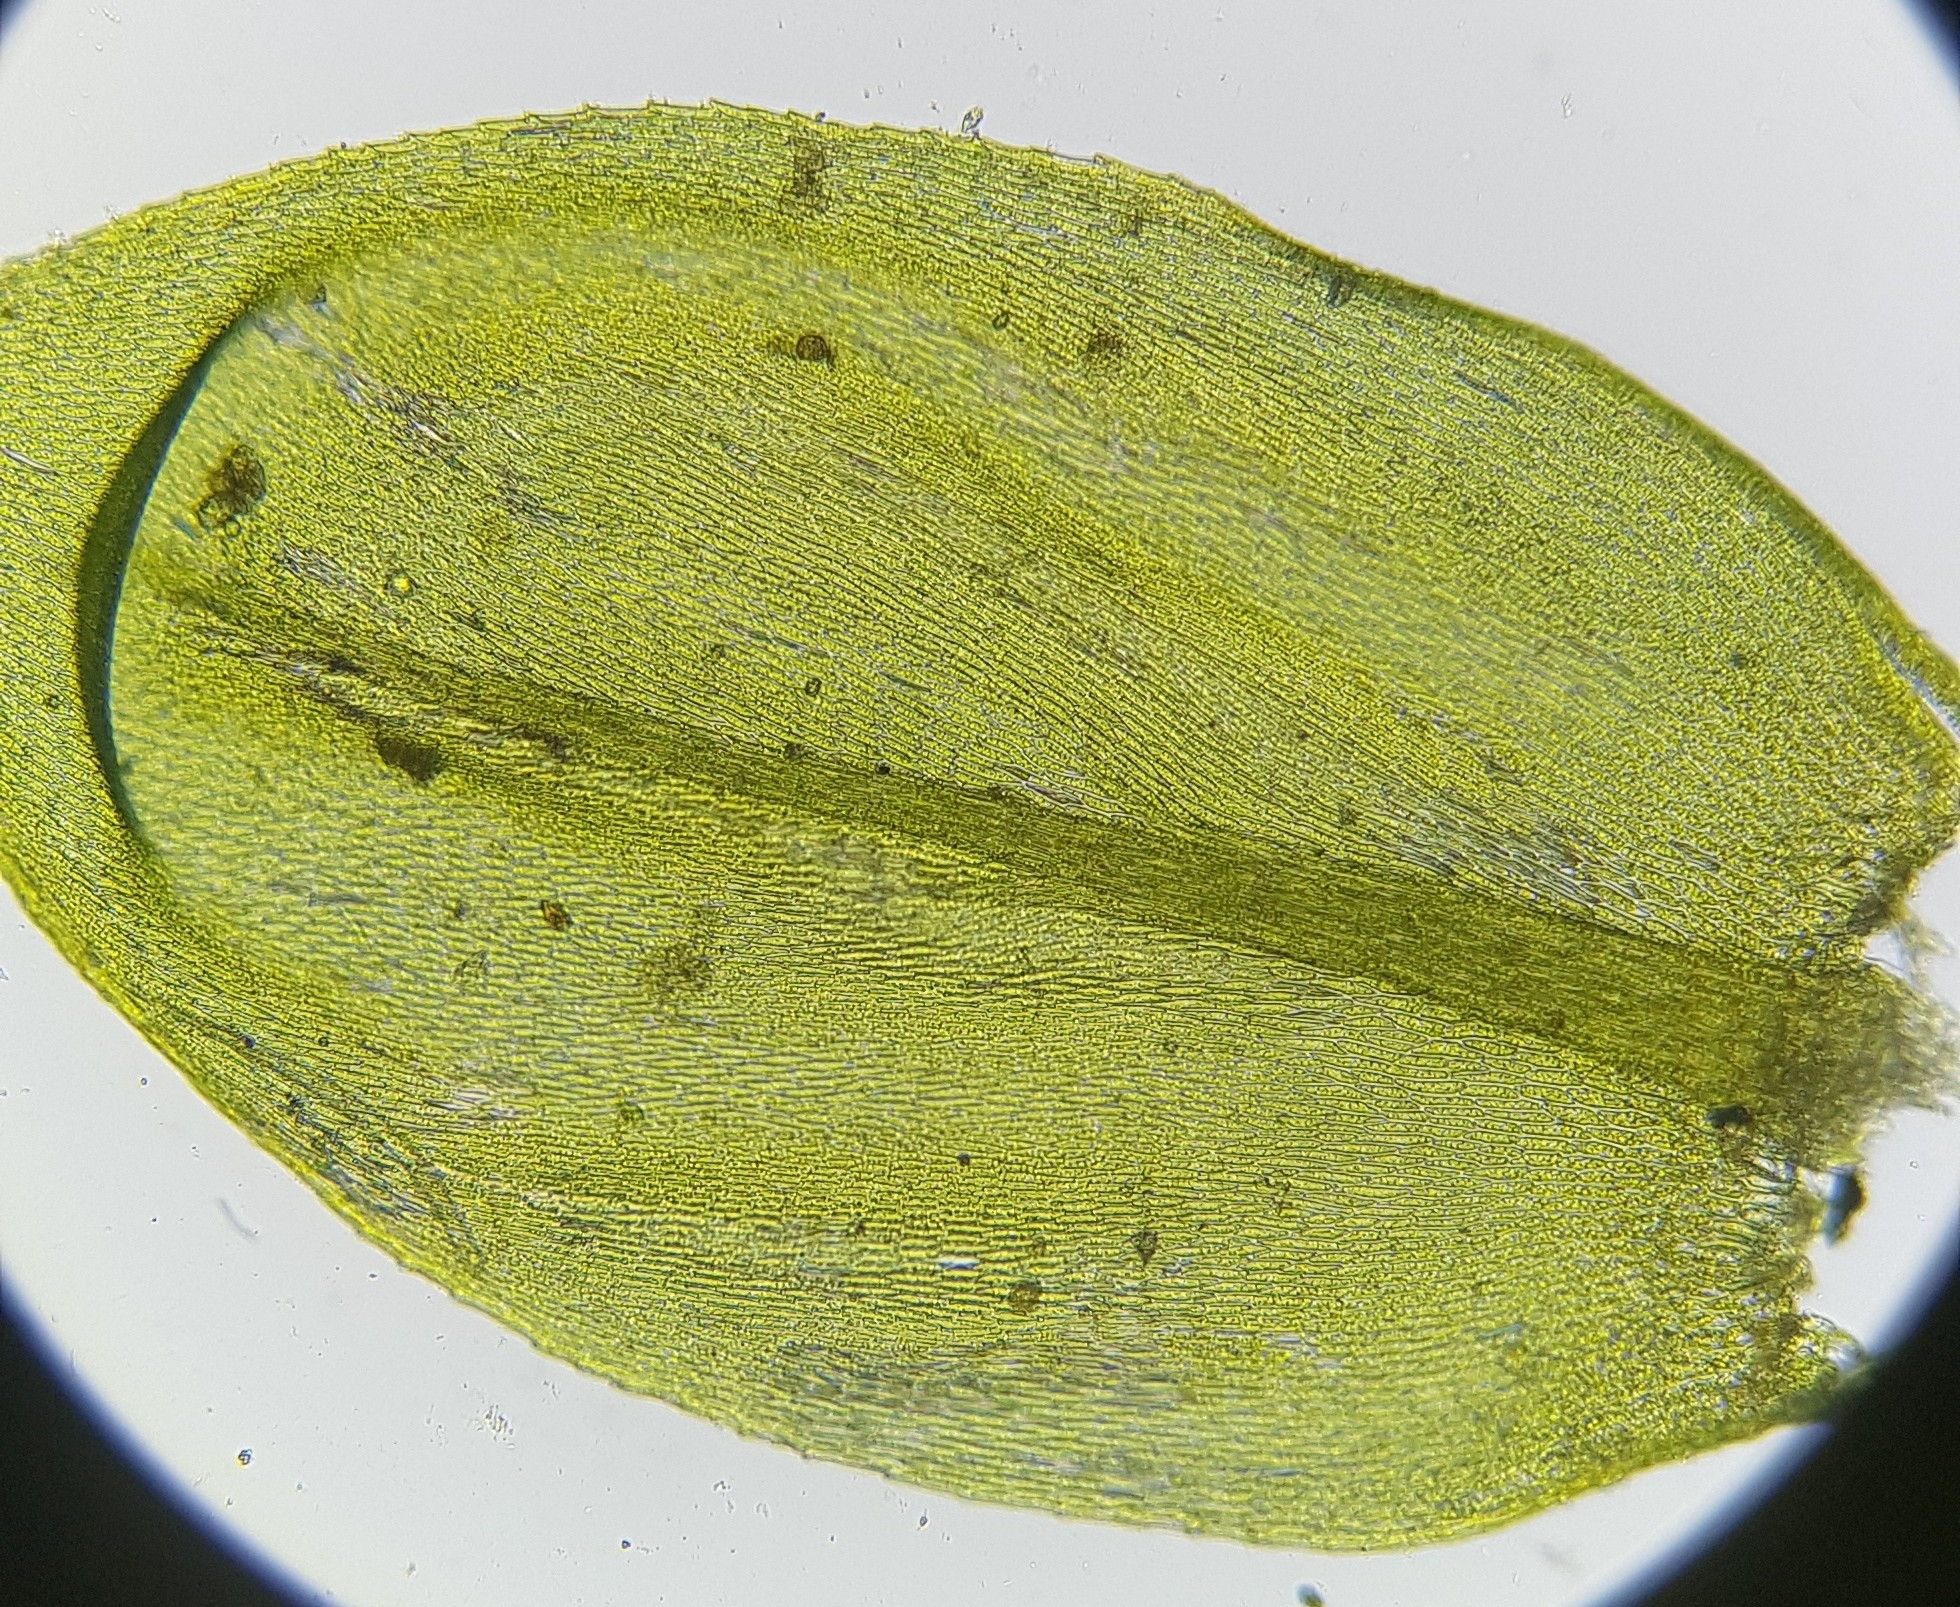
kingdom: Plantae
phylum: Bryophyta
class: Bryopsida
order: Hypnales
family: Brachytheciaceae
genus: Cirriphyllum
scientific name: Cirriphyllum crassinervium
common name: Beech feather-moss
